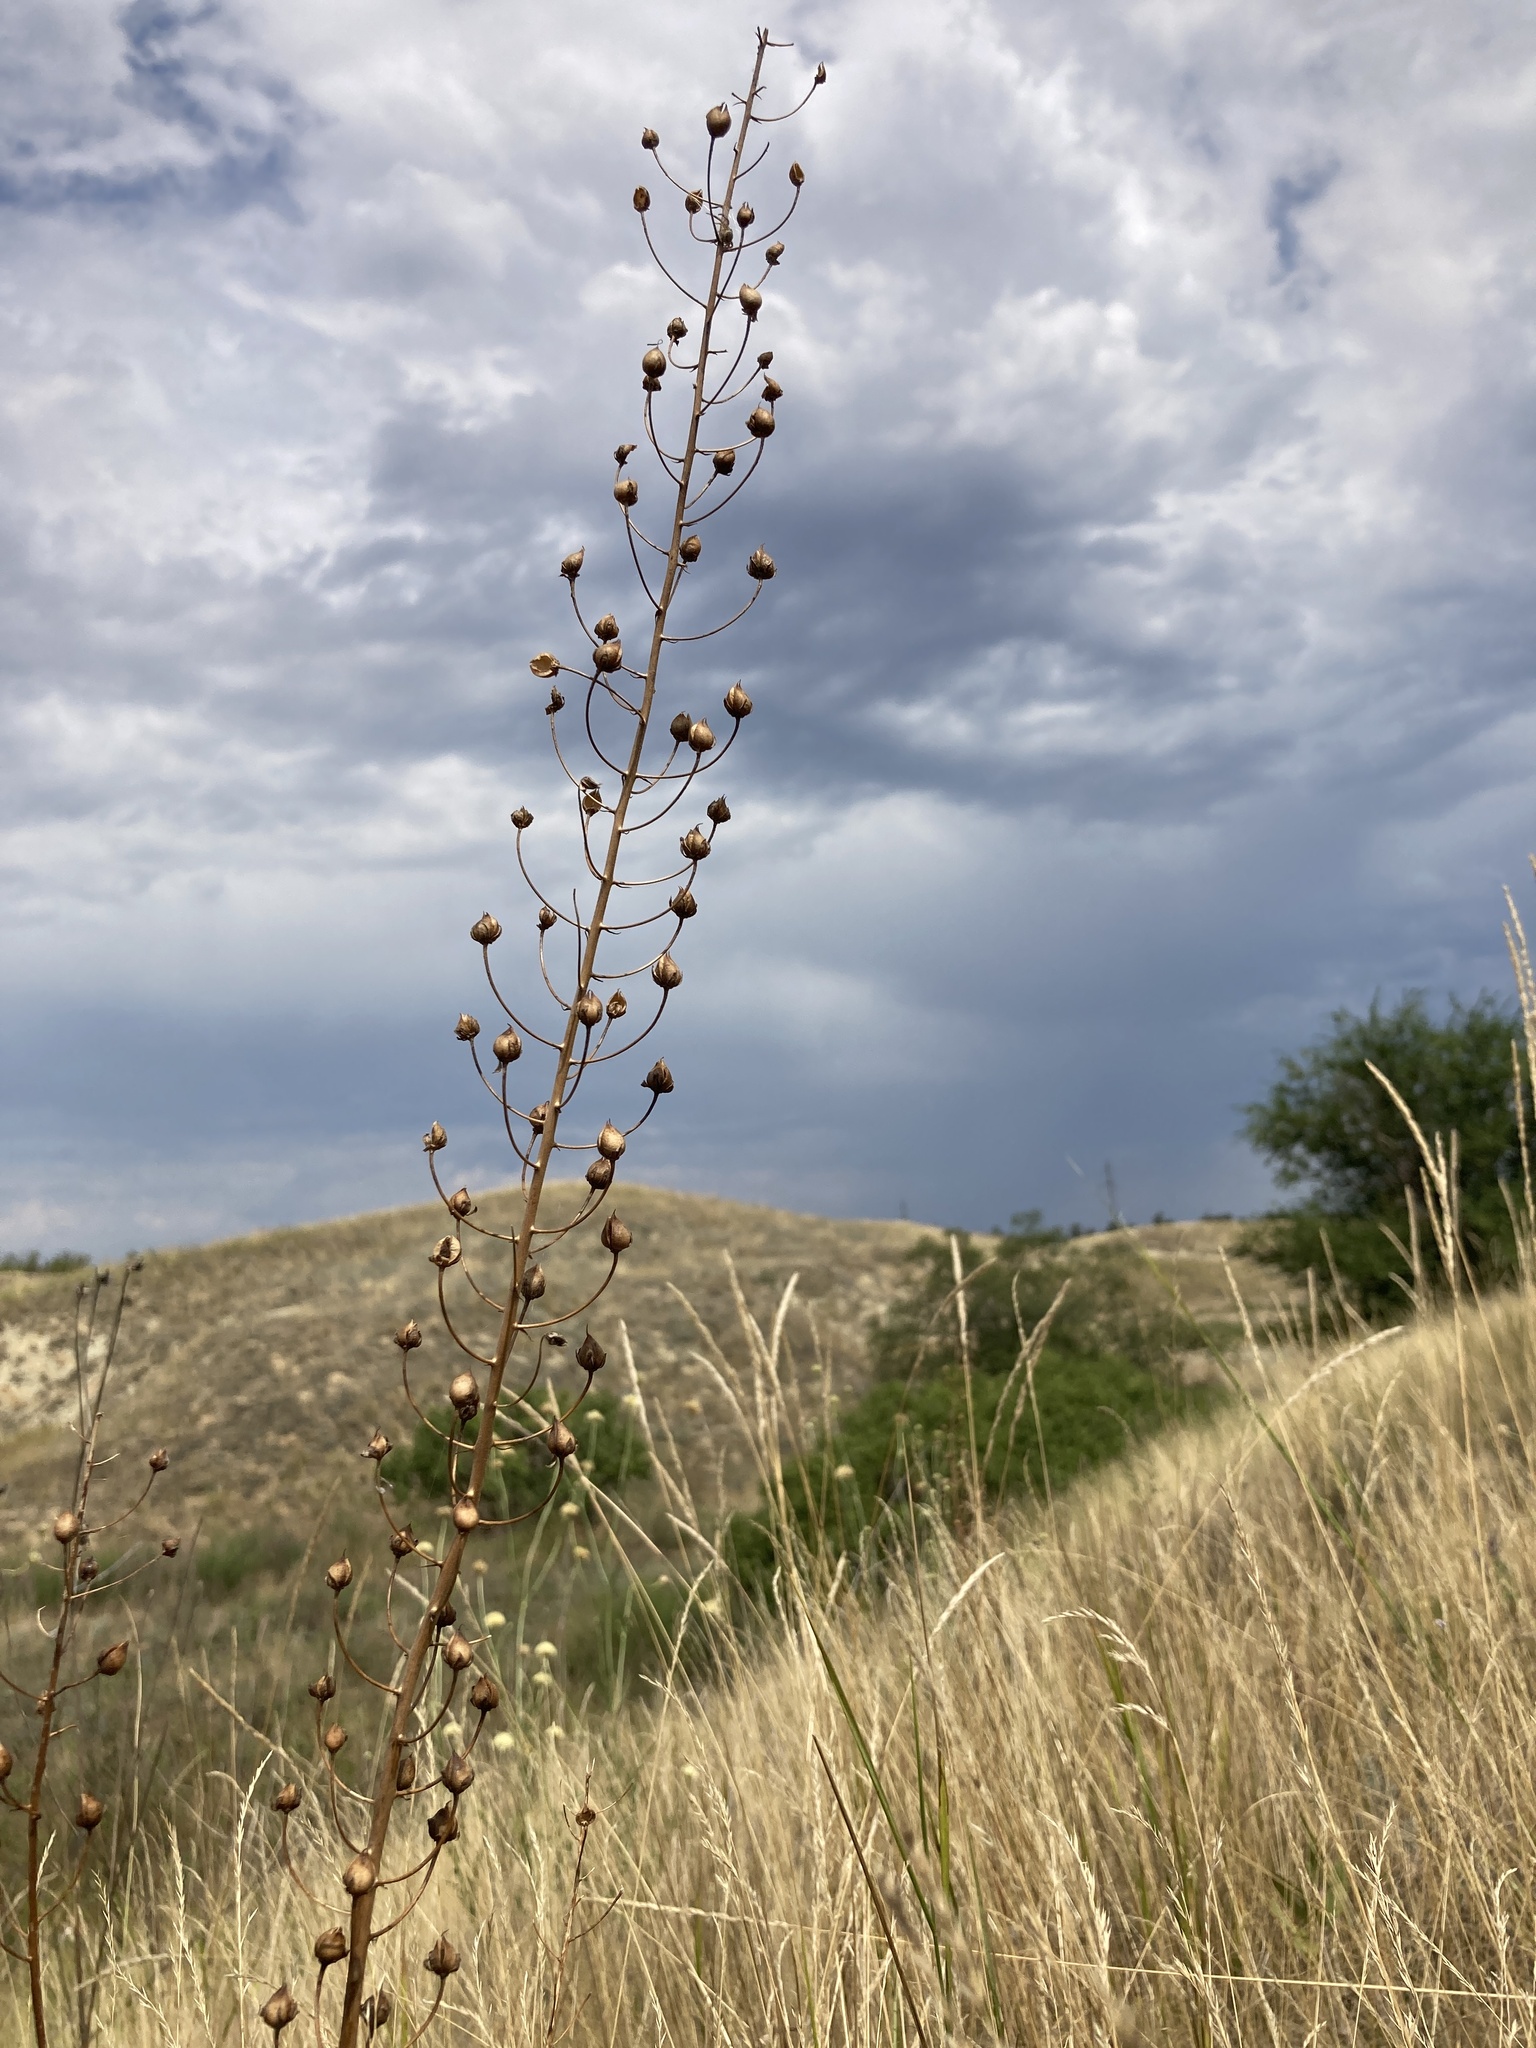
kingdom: Plantae
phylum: Tracheophyta
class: Magnoliopsida
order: Lamiales
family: Scrophulariaceae
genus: Verbascum
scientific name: Verbascum phoeniceum
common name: Purple mullein
